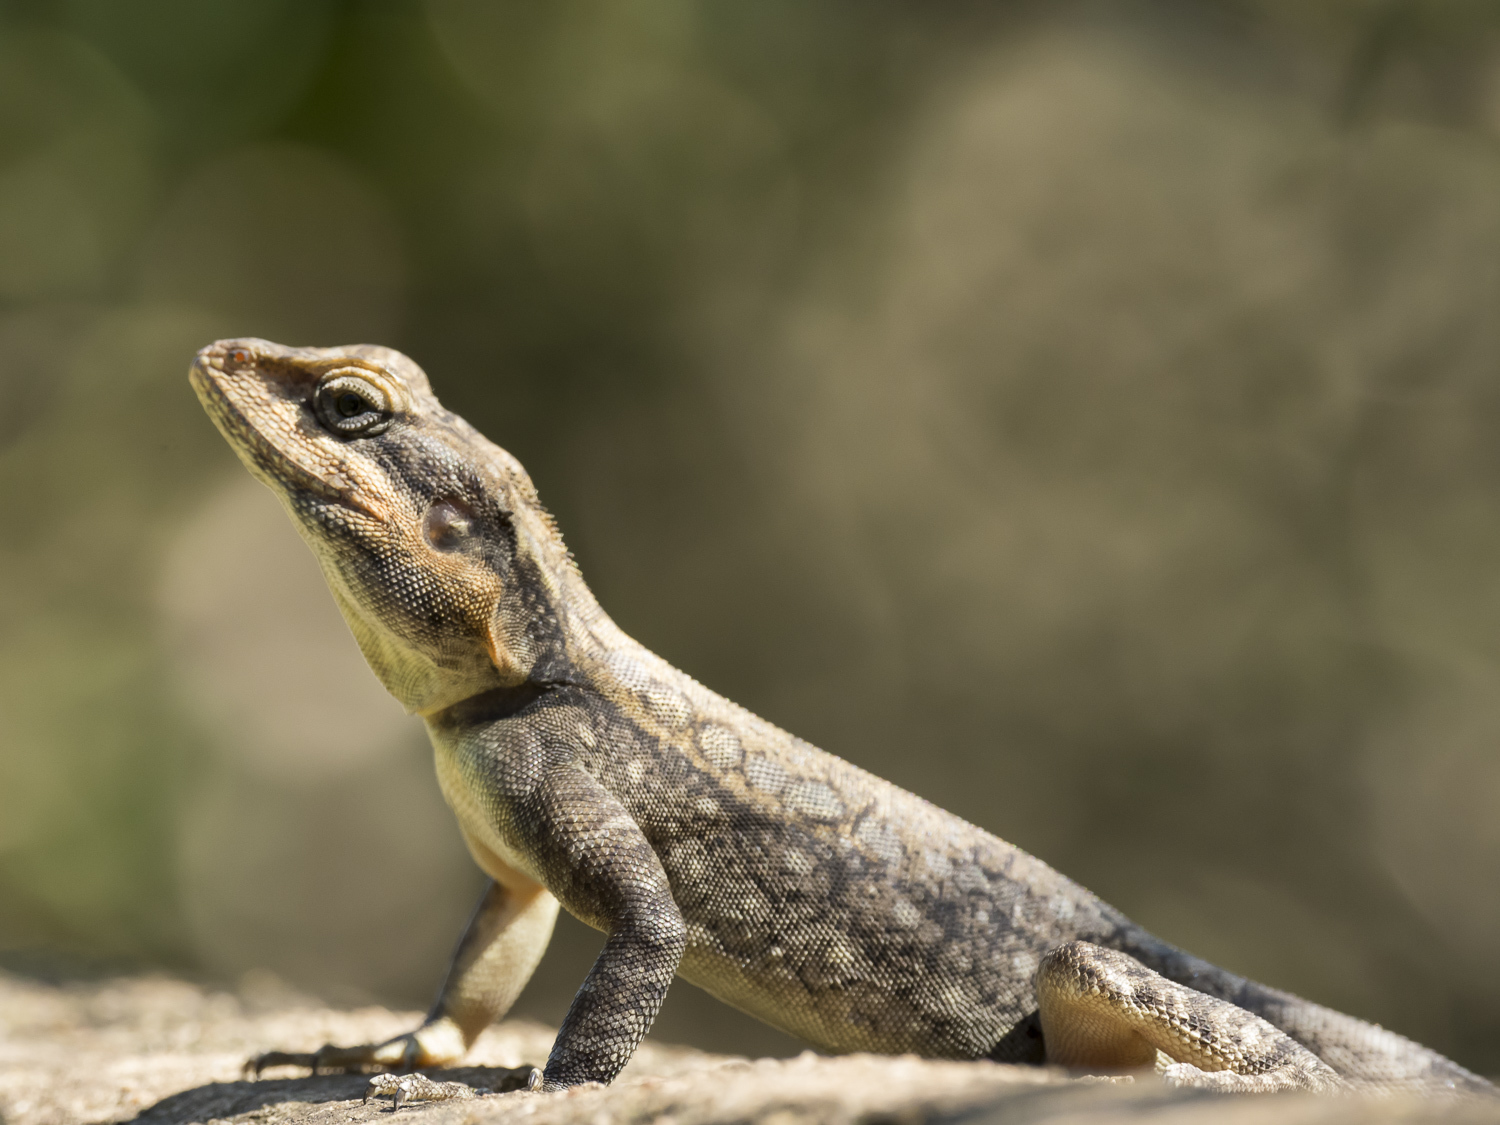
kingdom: Animalia
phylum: Chordata
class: Squamata
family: Agamidae
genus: Psammophilus
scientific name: Psammophilus dorsalis
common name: South indian rock agama
